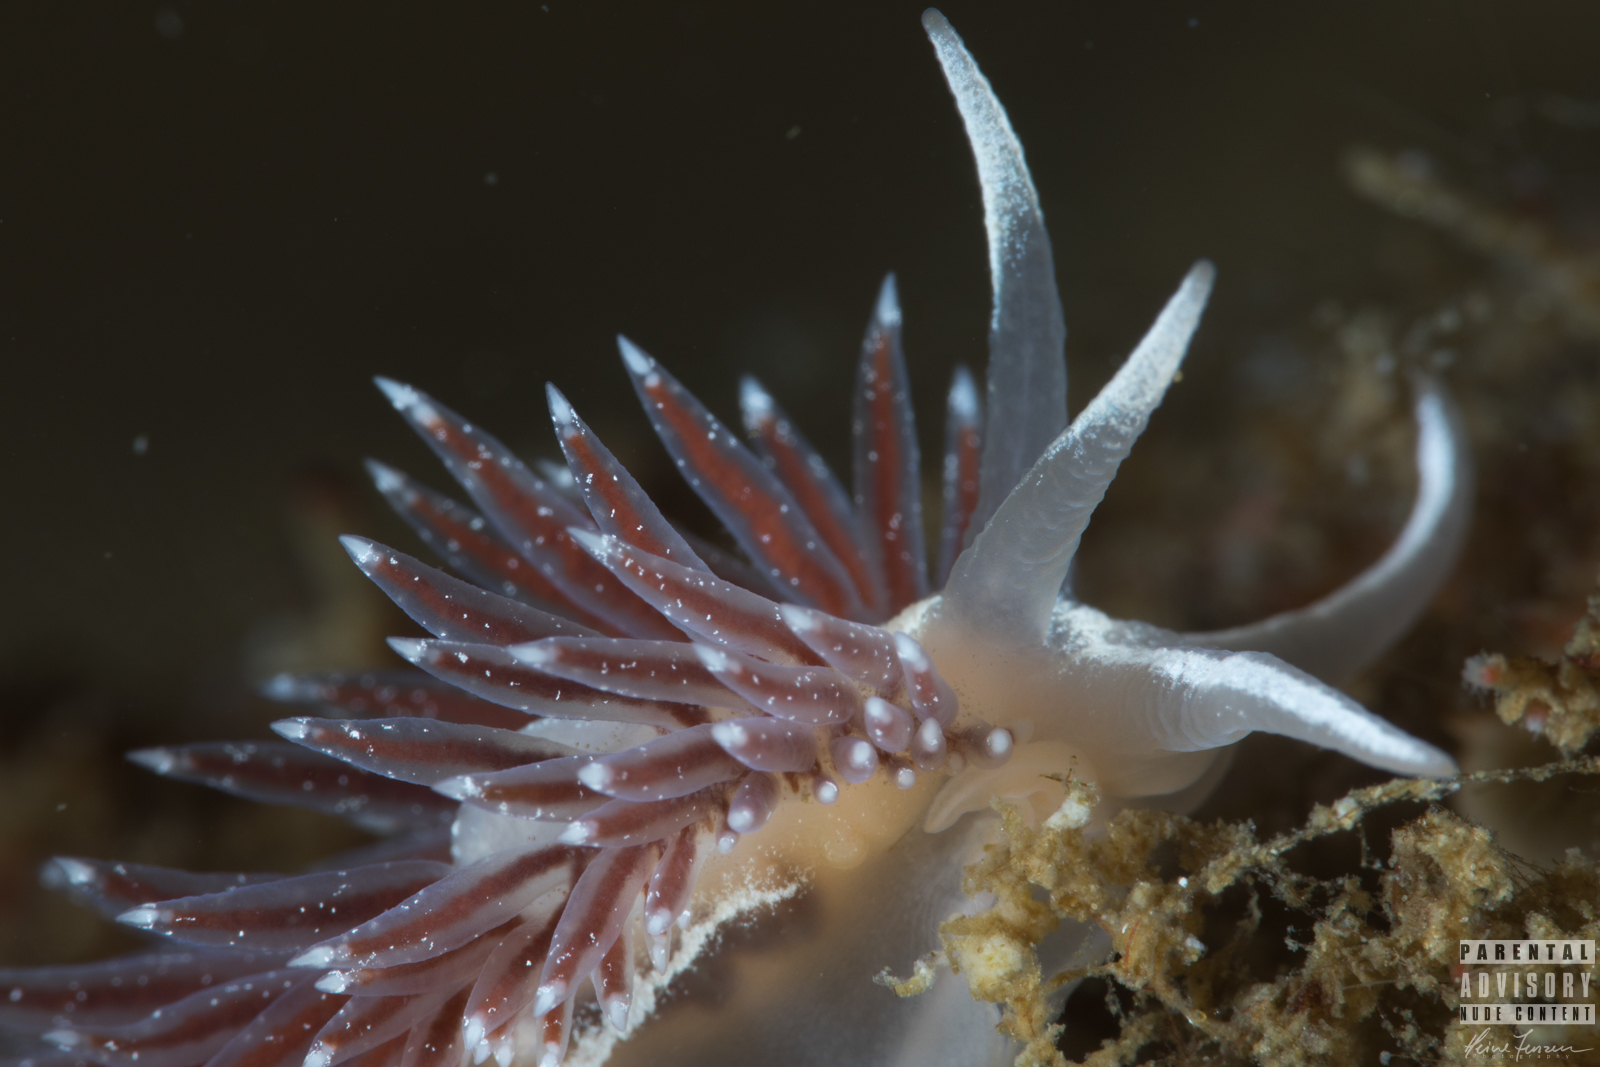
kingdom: Animalia
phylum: Mollusca
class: Gastropoda
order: Nudibranchia
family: Coryphellidae
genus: Coryphella
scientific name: Coryphella monicae
